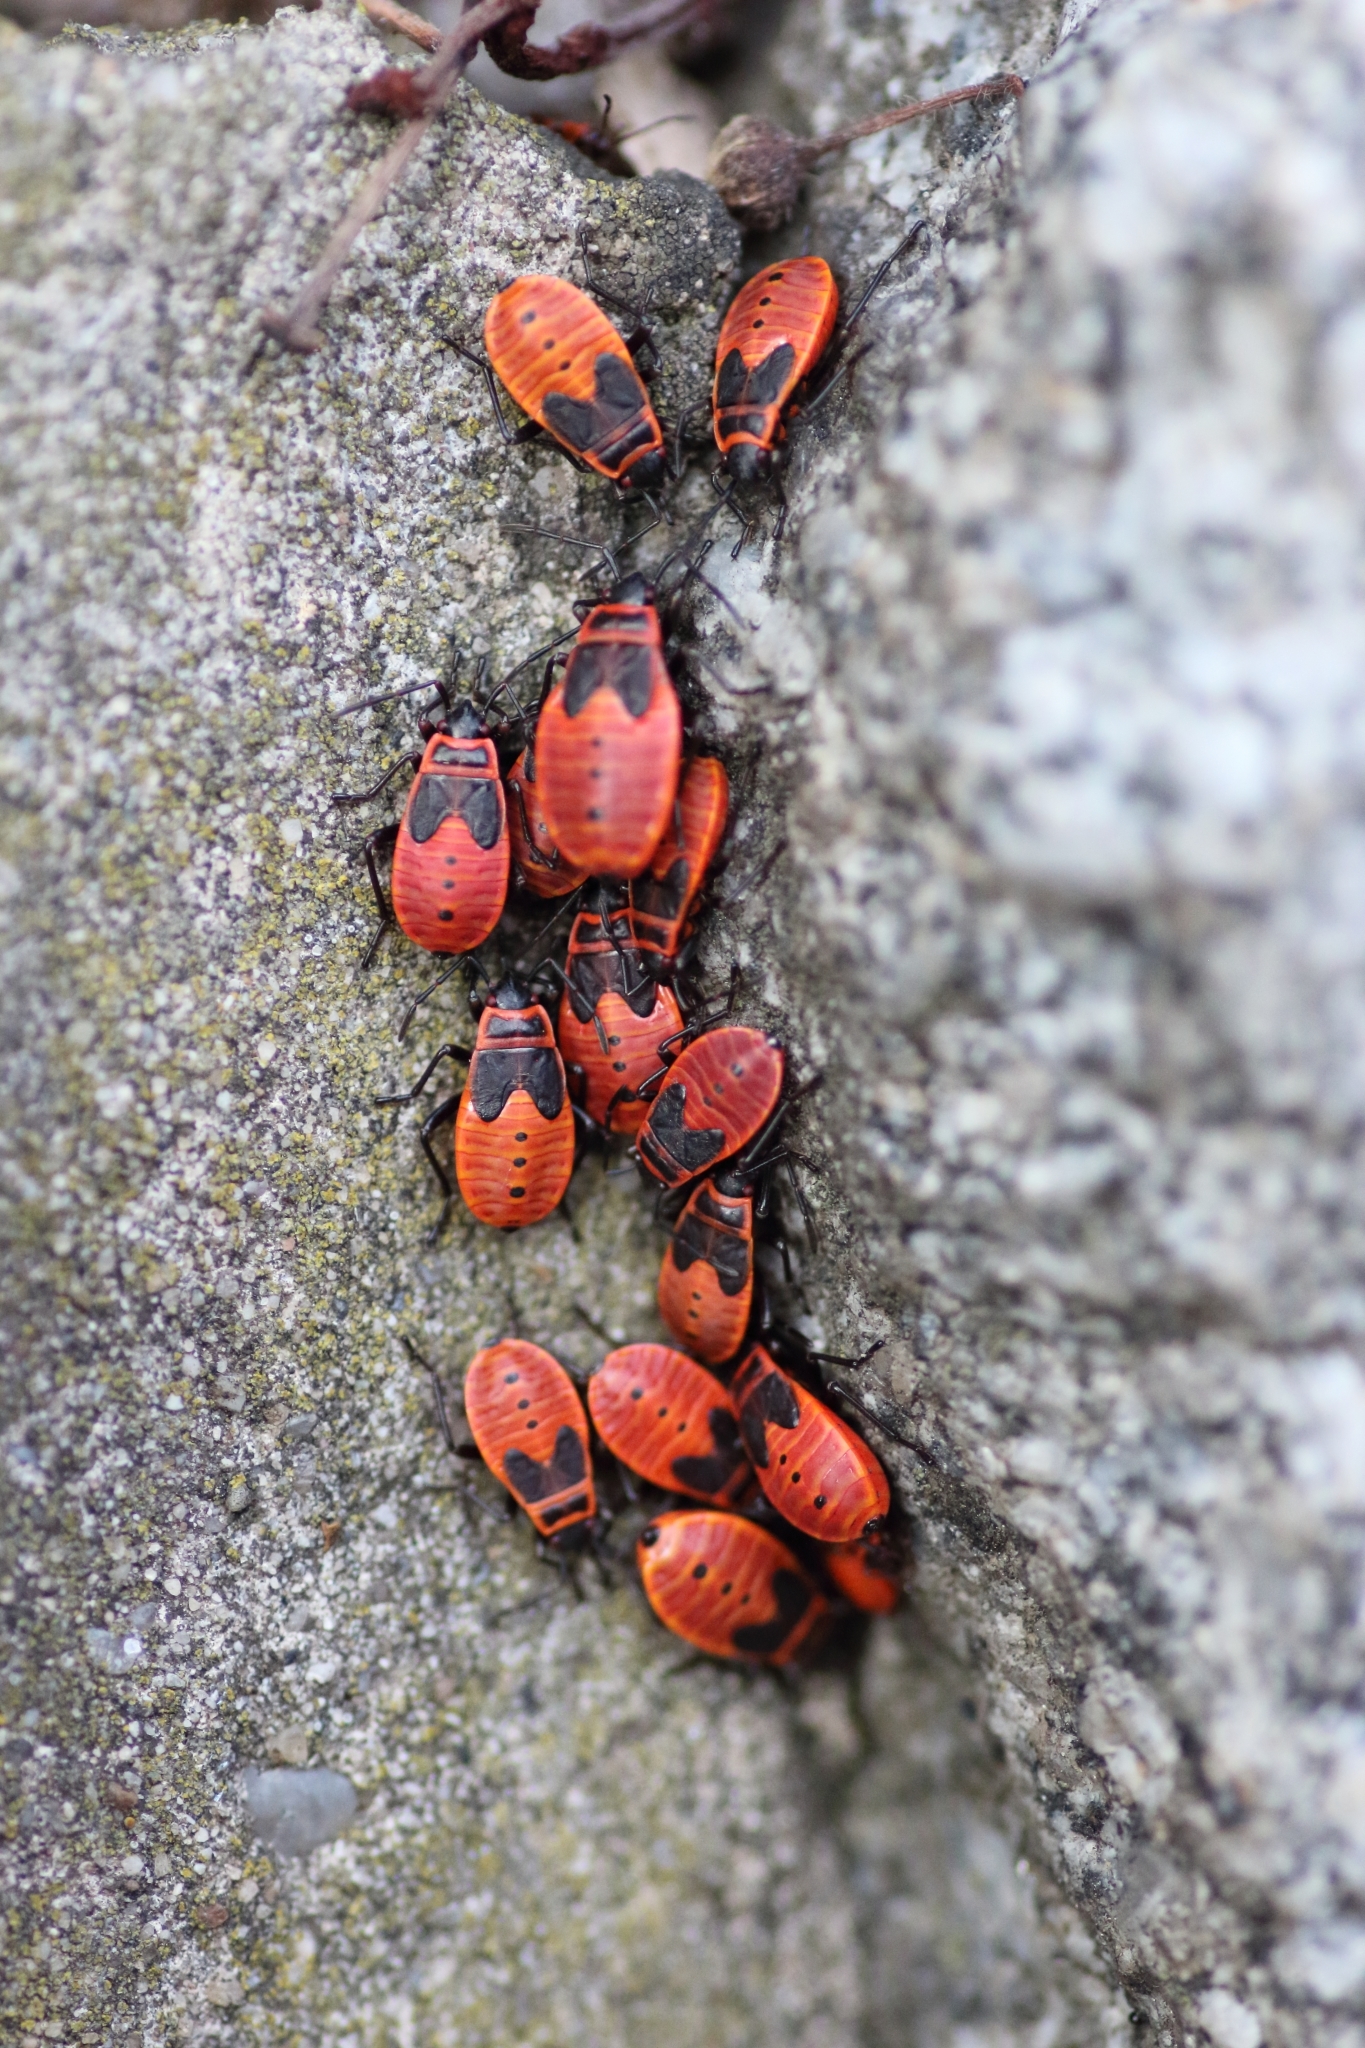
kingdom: Animalia
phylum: Arthropoda
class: Insecta
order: Hemiptera
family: Pyrrhocoridae
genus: Pyrrhocoris
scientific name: Pyrrhocoris apterus
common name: Firebug
